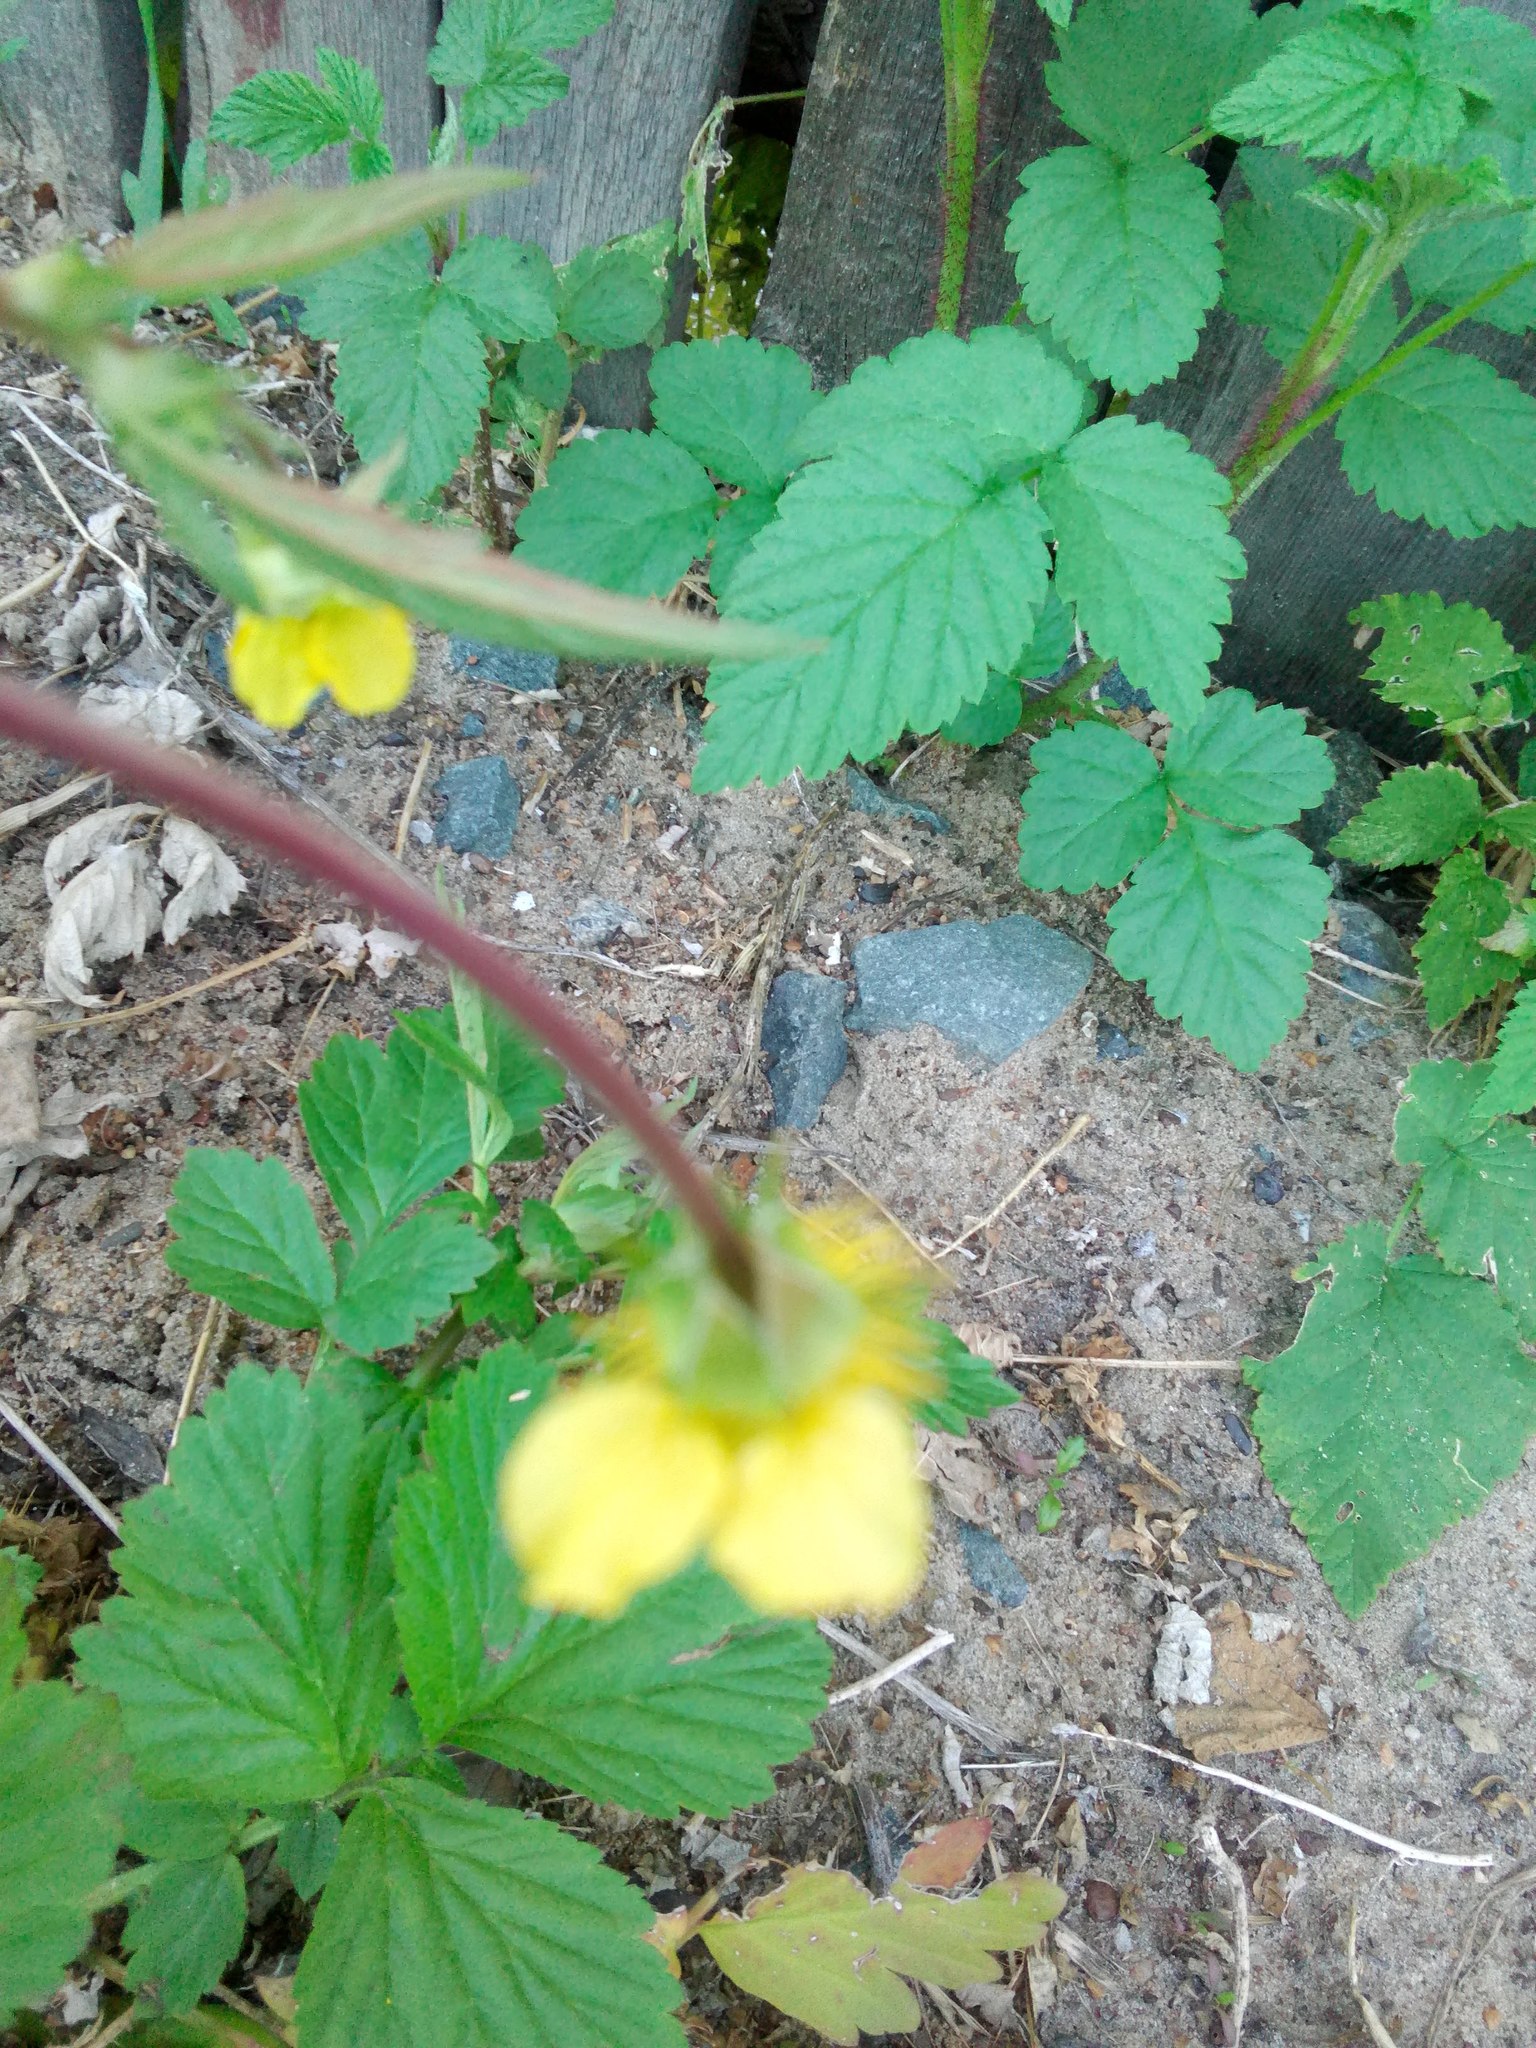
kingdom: Plantae
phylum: Tracheophyta
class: Magnoliopsida
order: Rosales
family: Rosaceae
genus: Geum
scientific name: Geum aleppicum
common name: Yellow avens
